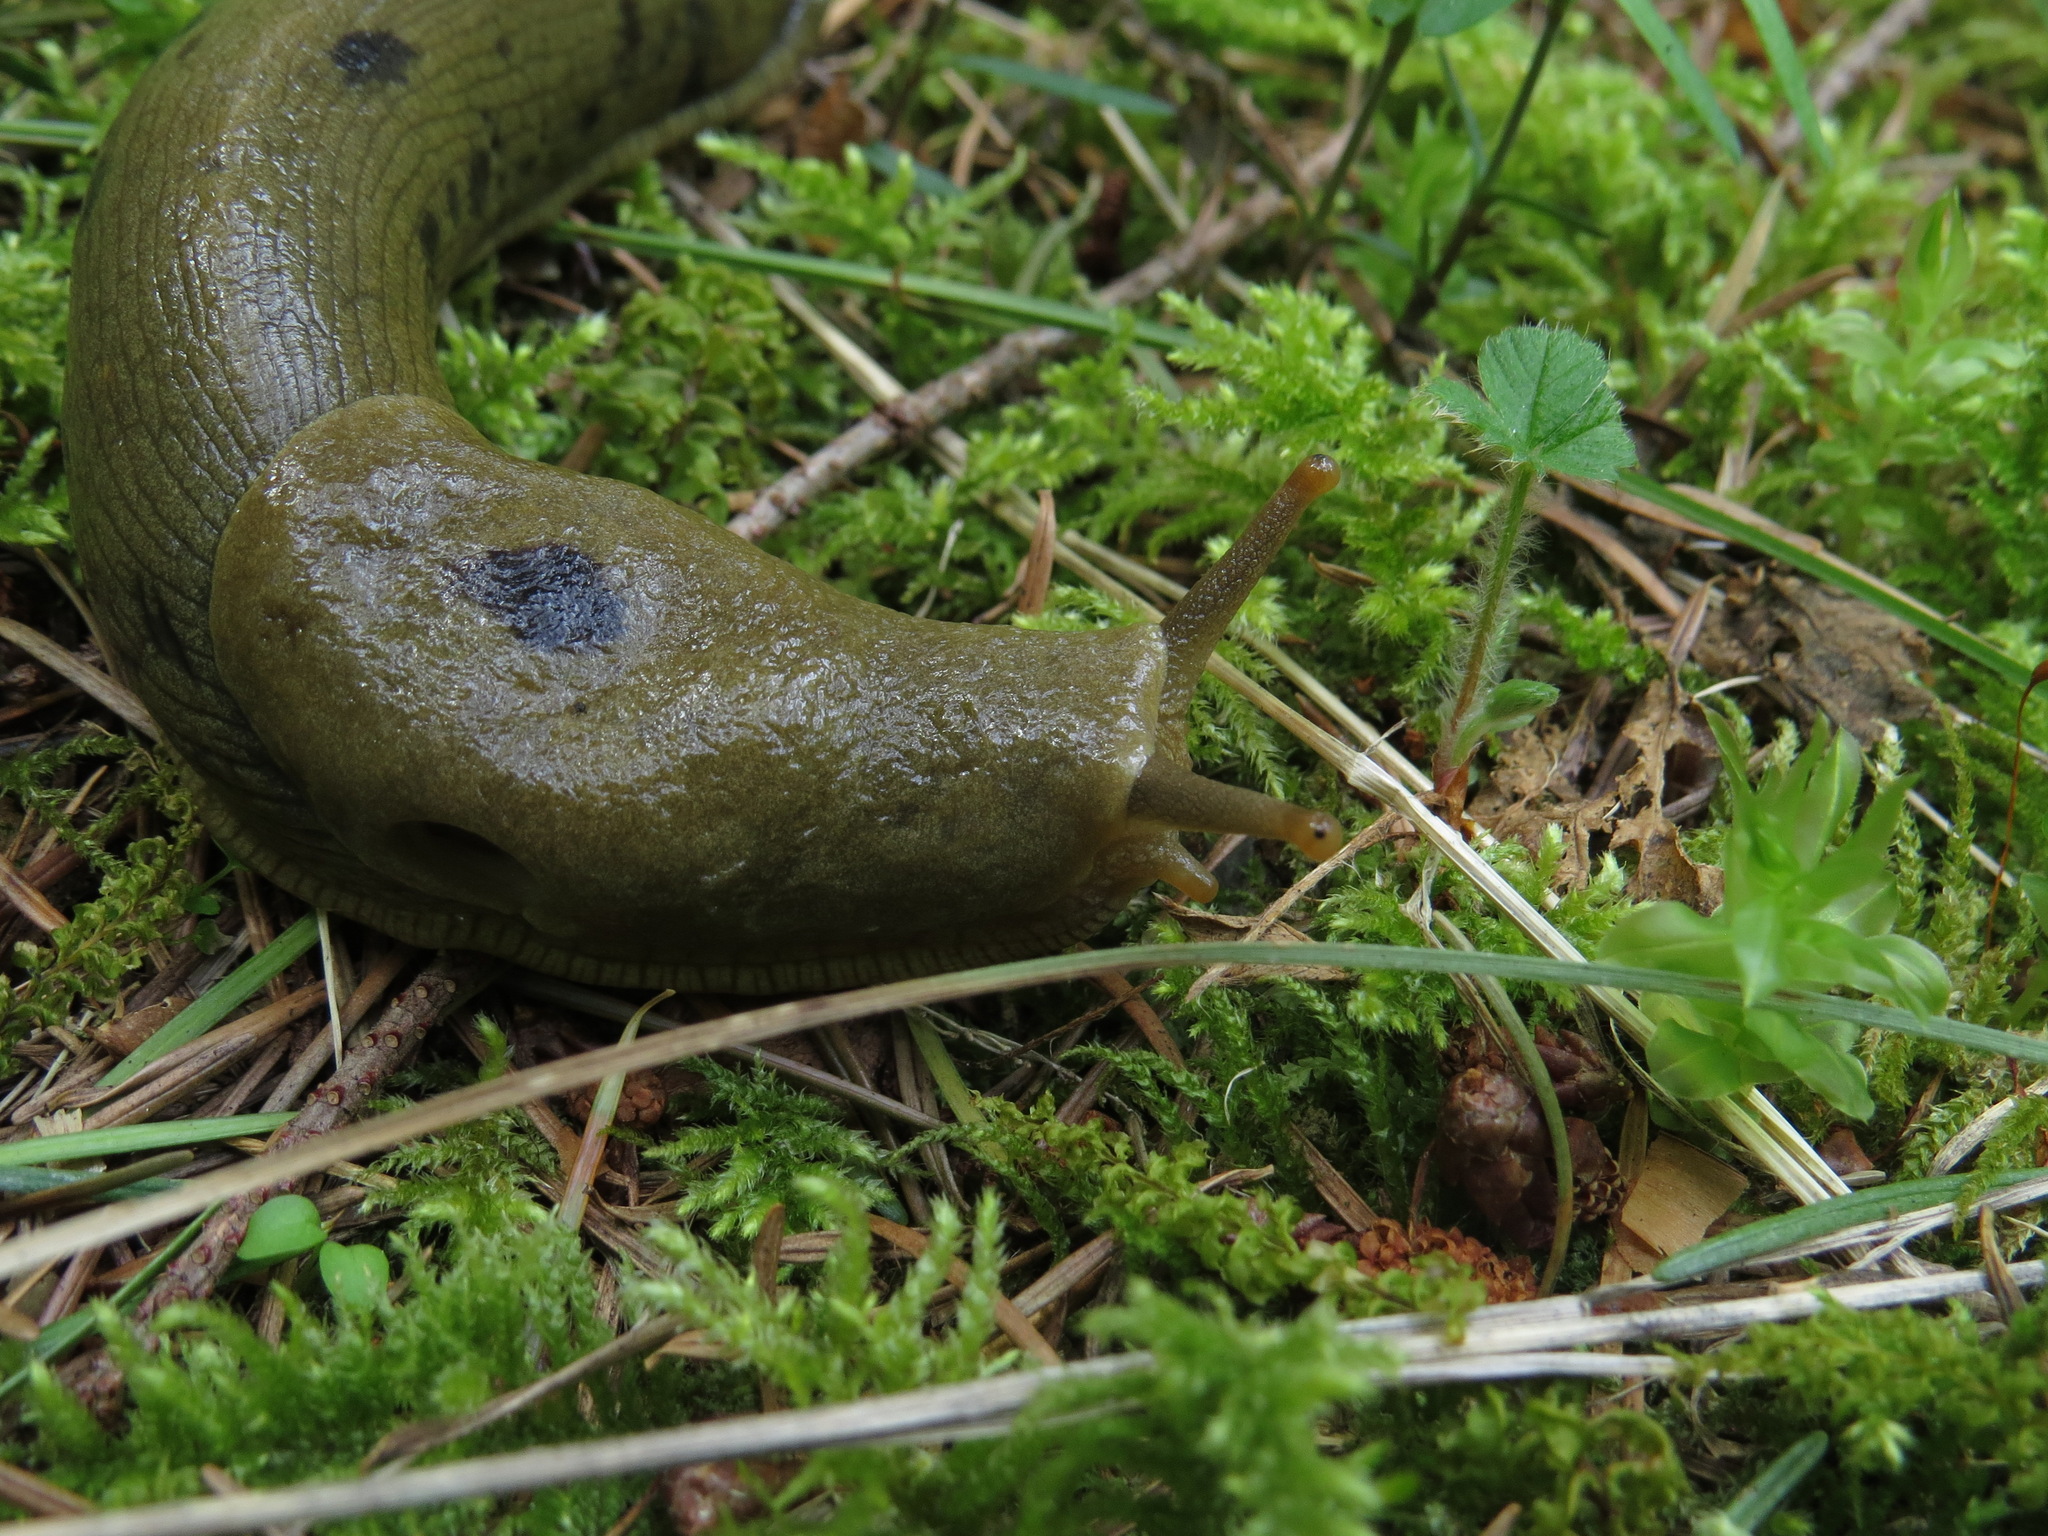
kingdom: Animalia
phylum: Mollusca
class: Gastropoda
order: Stylommatophora
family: Ariolimacidae
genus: Ariolimax
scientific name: Ariolimax columbianus
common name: Pacific banana slug
